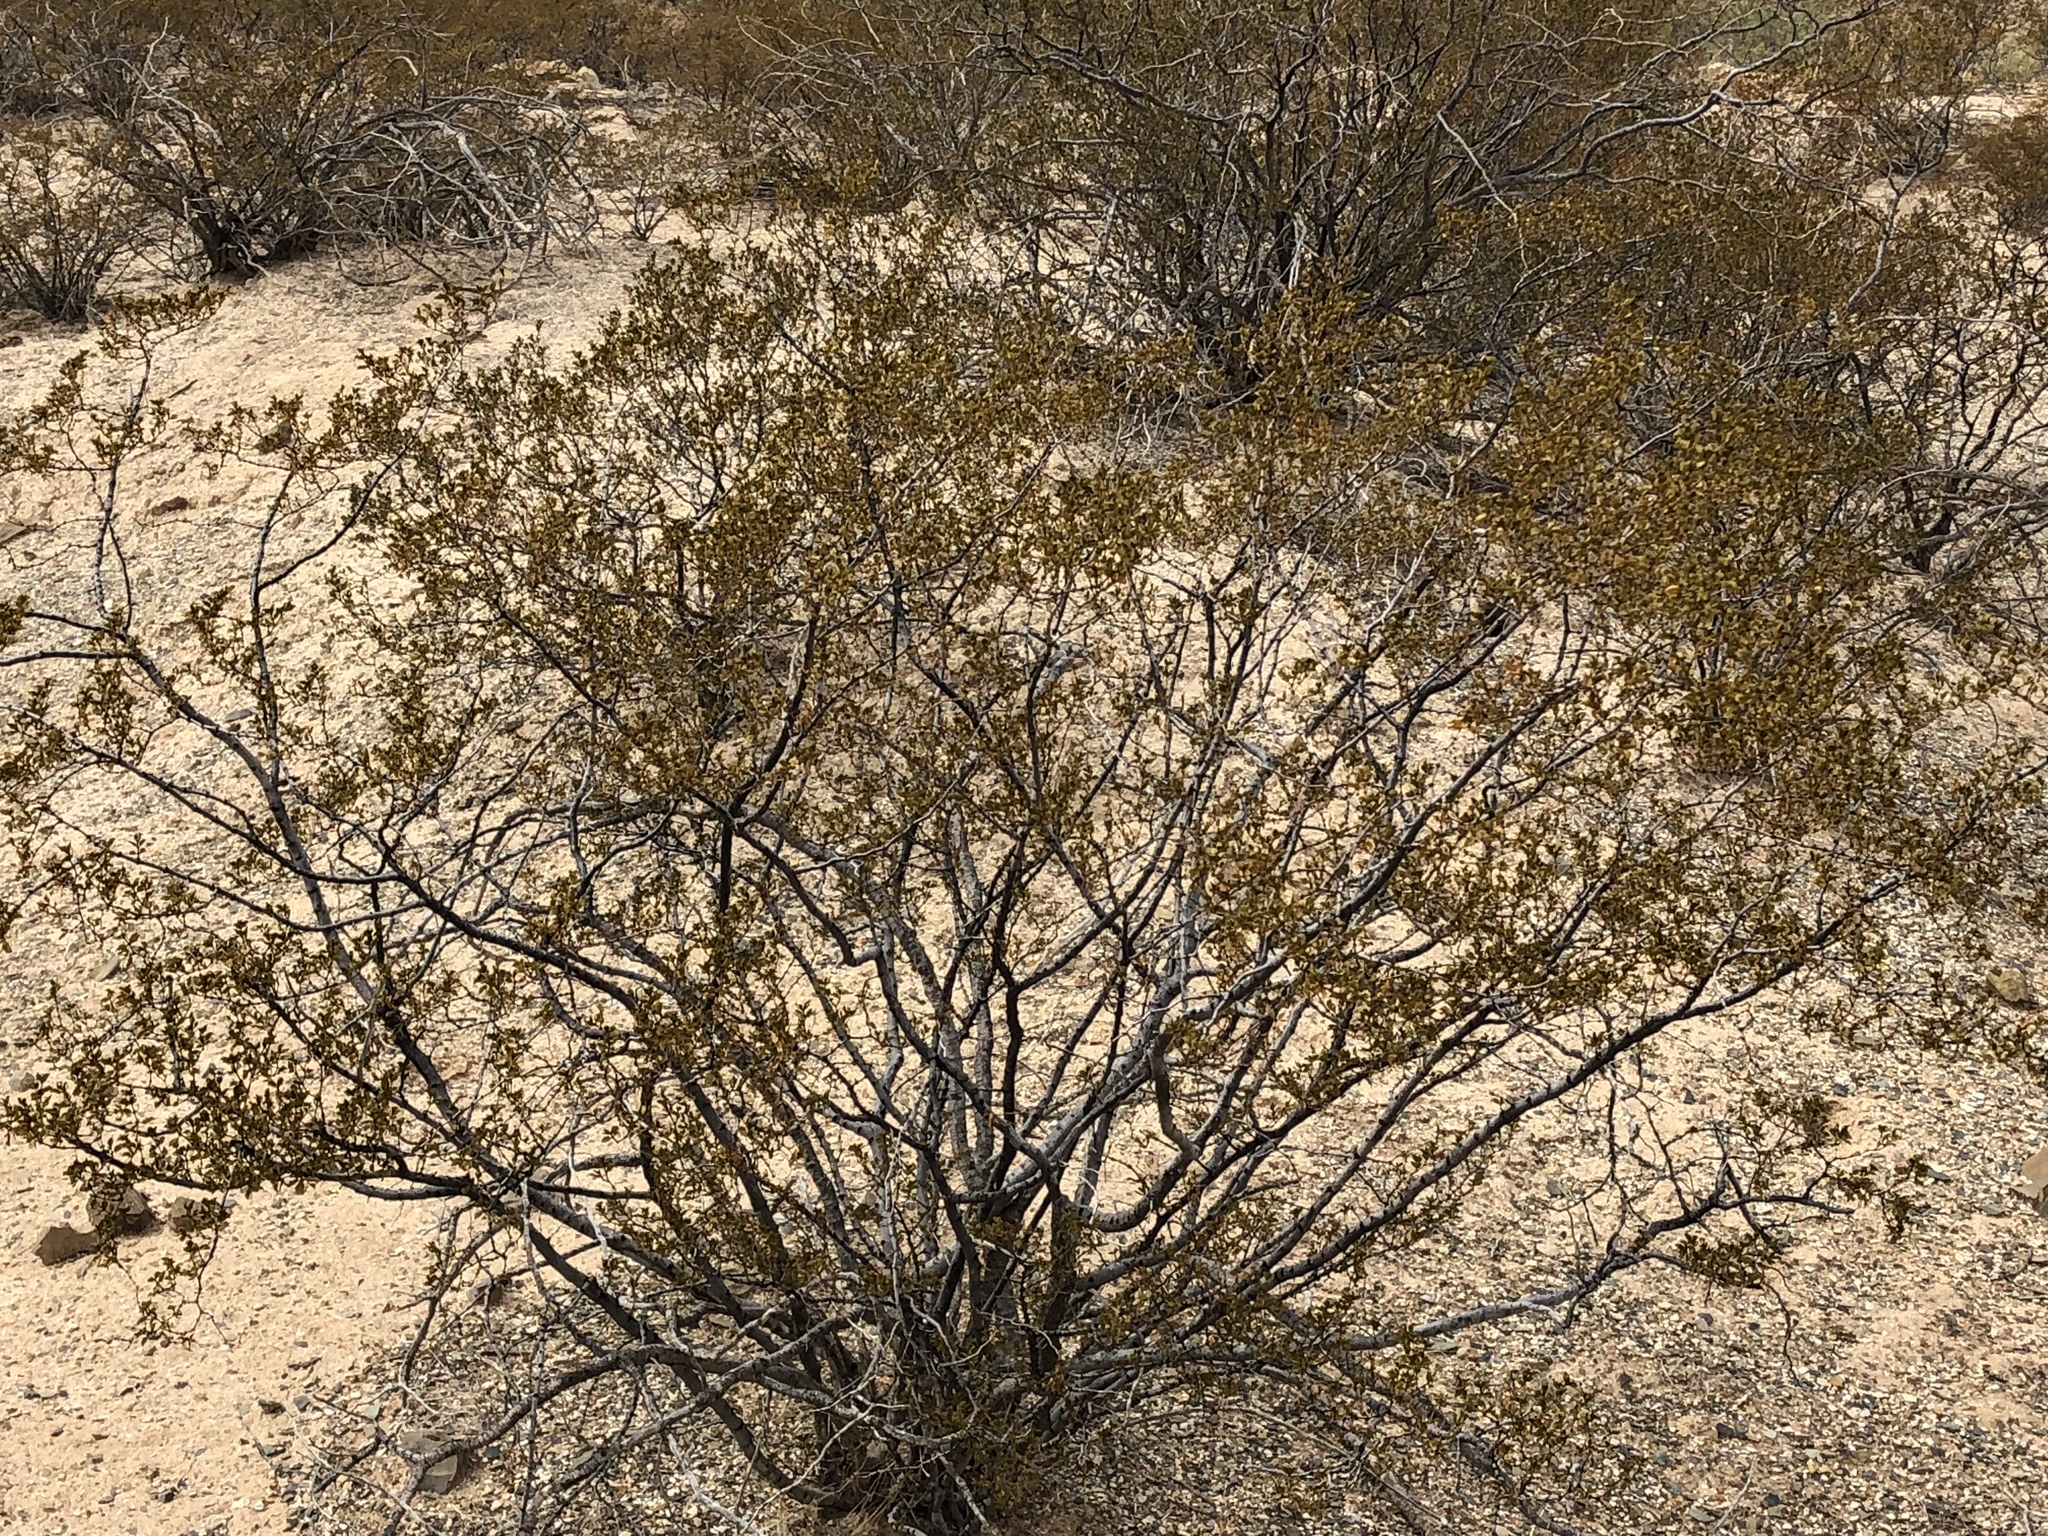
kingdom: Plantae
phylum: Tracheophyta
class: Magnoliopsida
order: Zygophyllales
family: Zygophyllaceae
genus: Larrea
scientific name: Larrea tridentata
